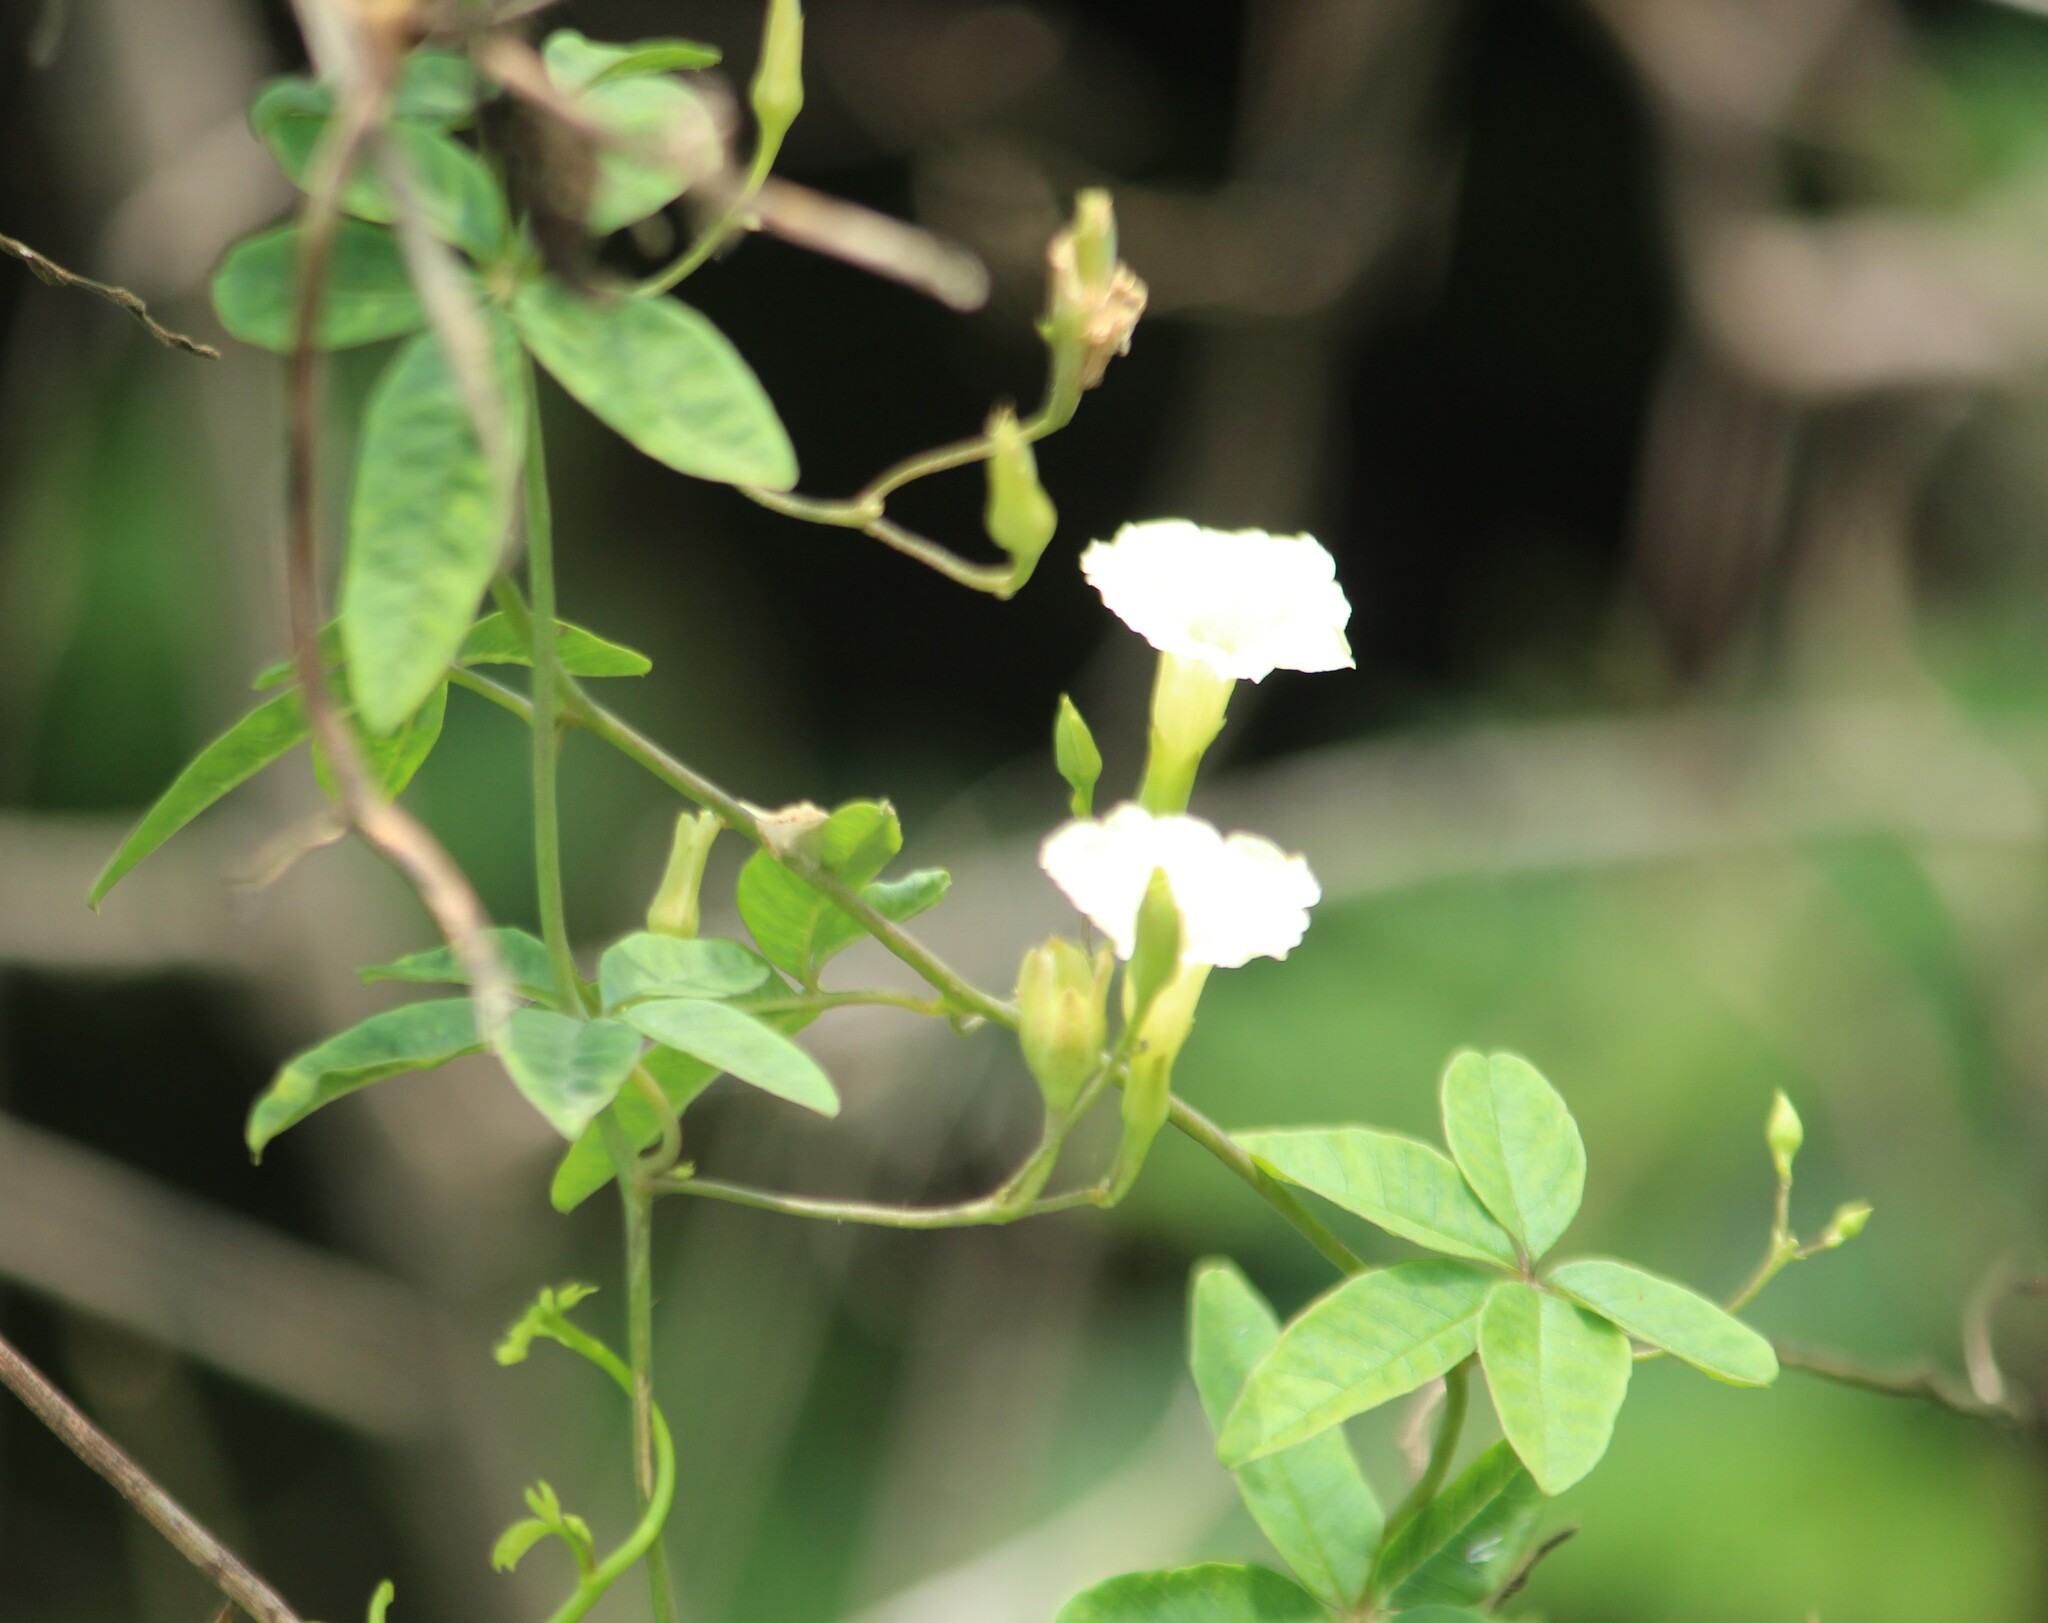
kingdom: Plantae
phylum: Tracheophyta
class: Magnoliopsida
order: Solanales
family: Convolvulaceae
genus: Distimake
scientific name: Distimake quinquefolius
